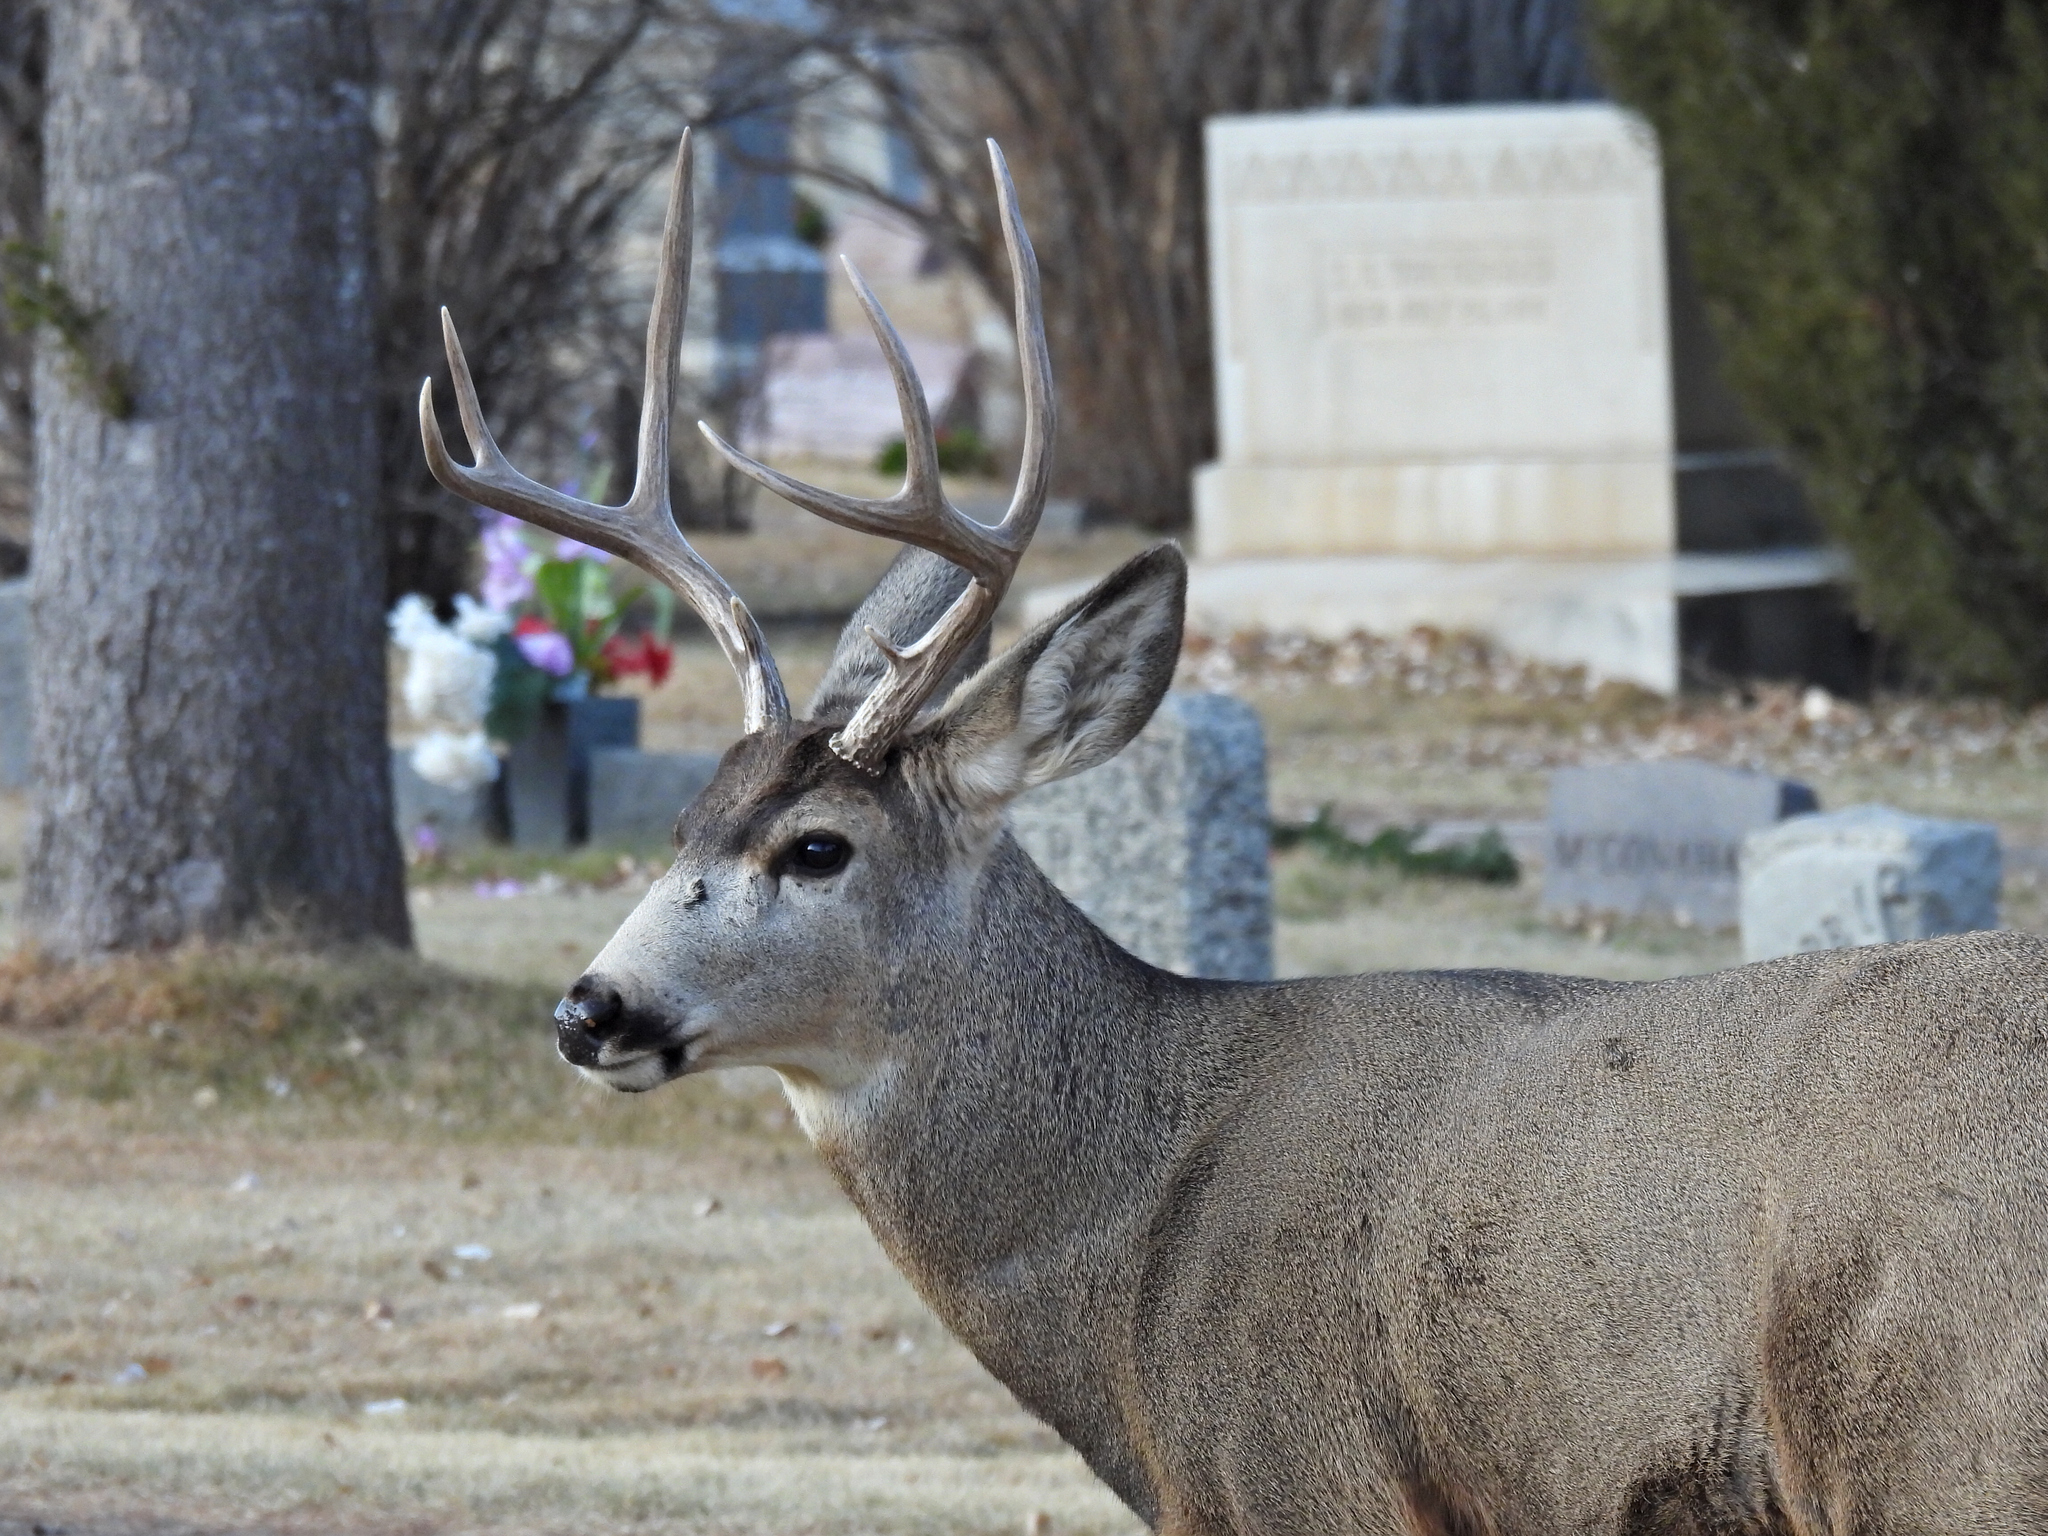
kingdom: Animalia
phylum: Chordata
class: Mammalia
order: Artiodactyla
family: Cervidae
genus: Odocoileus
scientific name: Odocoileus hemionus
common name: Mule deer
